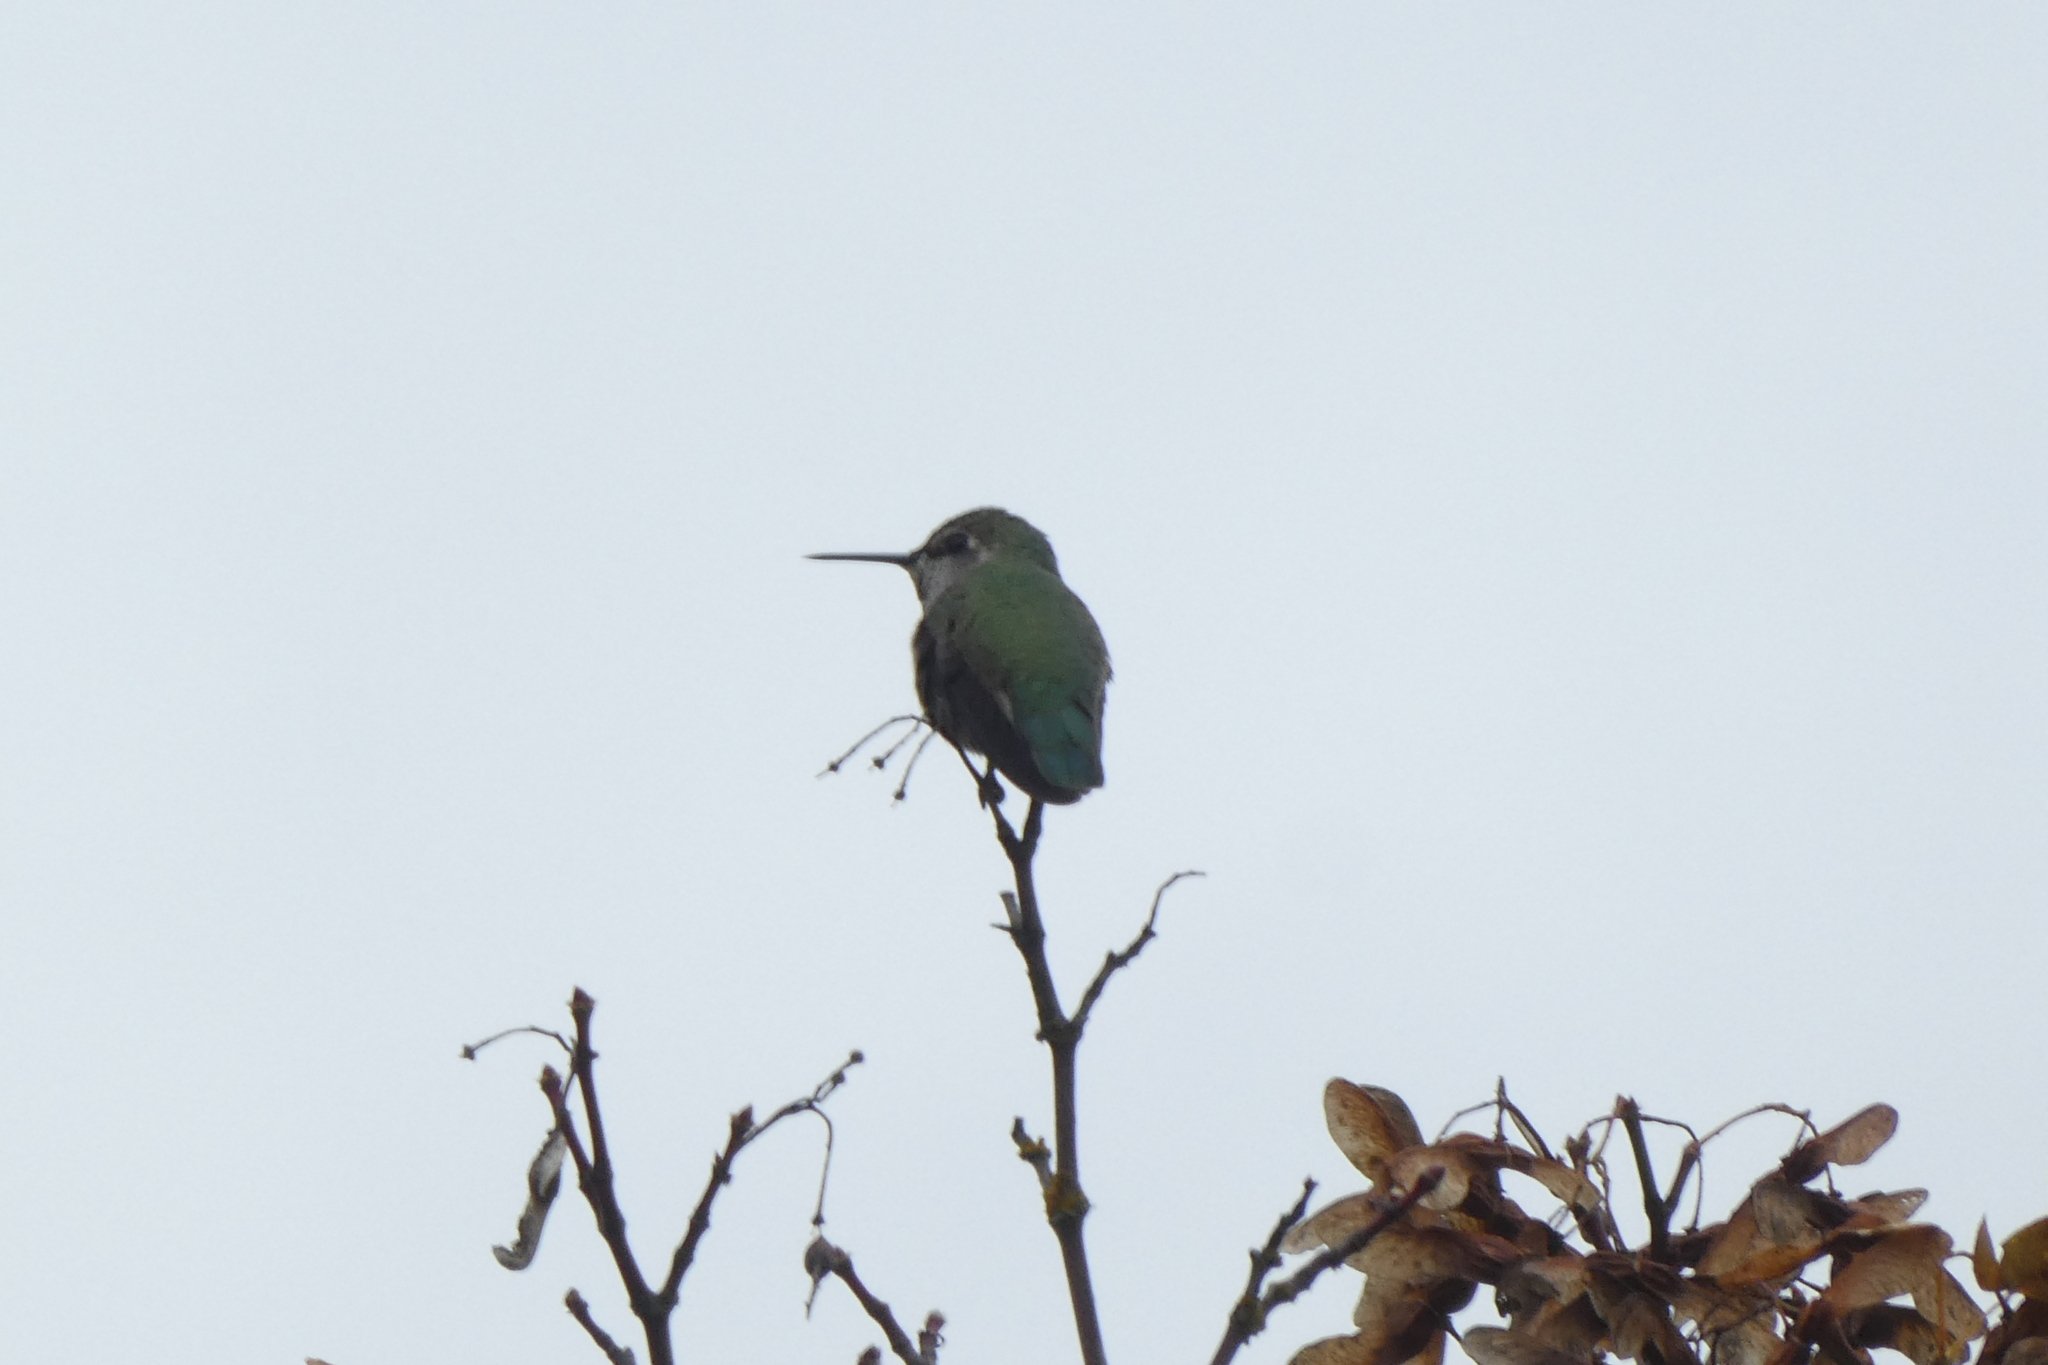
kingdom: Animalia
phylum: Chordata
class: Aves
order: Apodiformes
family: Trochilidae
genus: Calypte
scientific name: Calypte anna
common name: Anna's hummingbird
